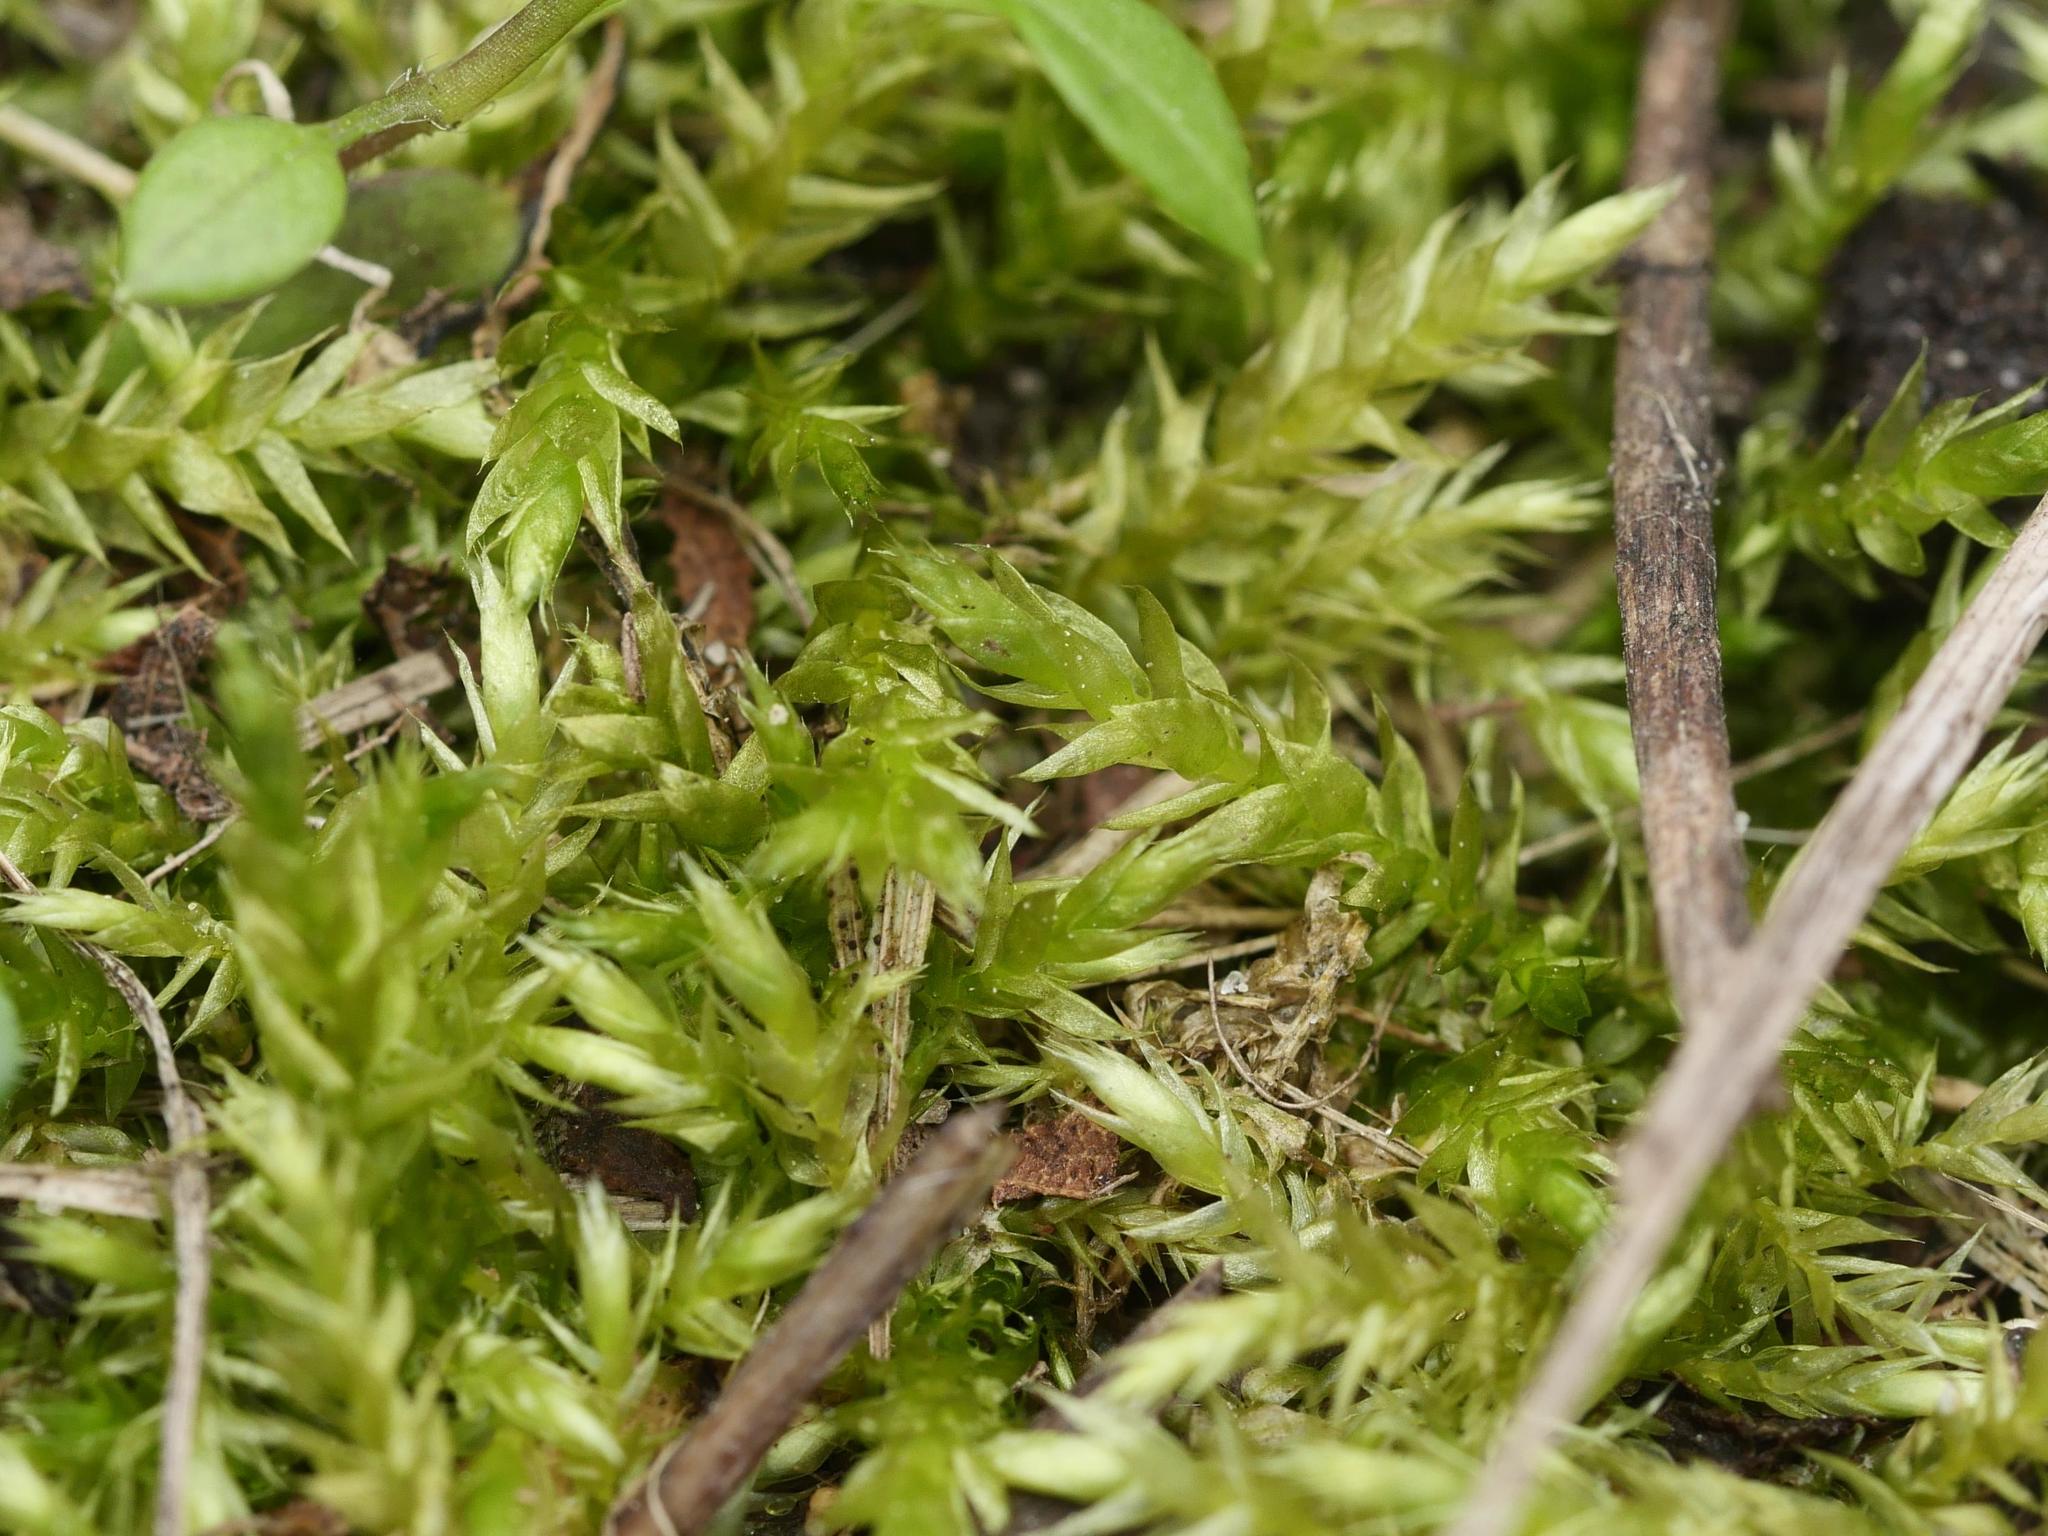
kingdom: Plantae
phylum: Bryophyta
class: Bryopsida
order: Hypnales
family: Brachytheciaceae
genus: Brachythecium
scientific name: Brachythecium rutabulum
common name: Rough-stalked feather-moss
